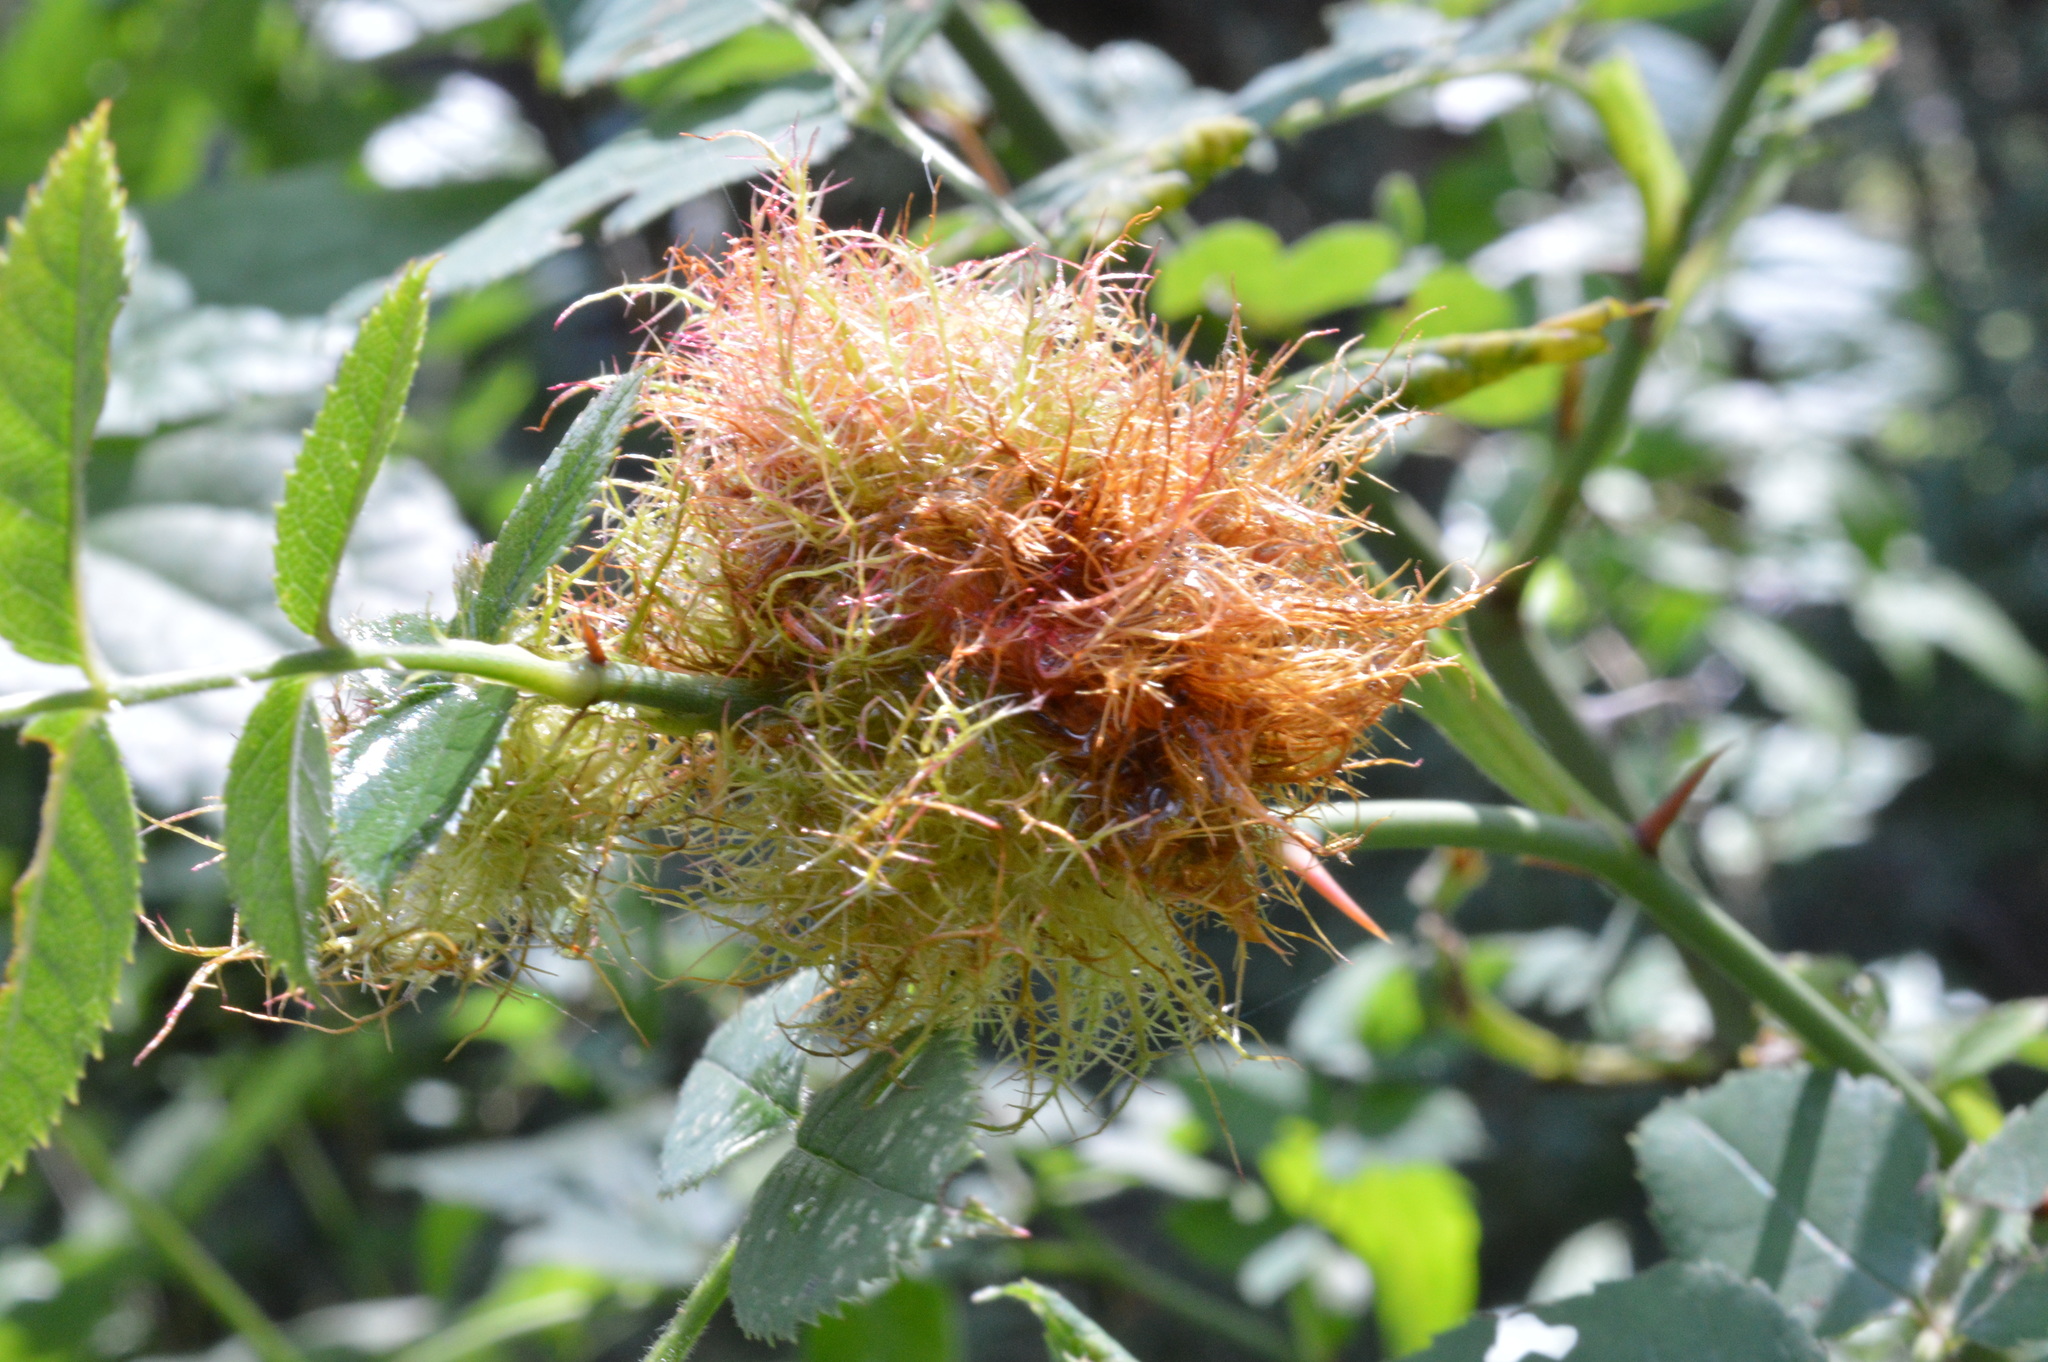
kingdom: Animalia
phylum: Arthropoda
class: Insecta
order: Hymenoptera
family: Cynipidae
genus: Diplolepis
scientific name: Diplolepis rosae
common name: Bedeguar gall
